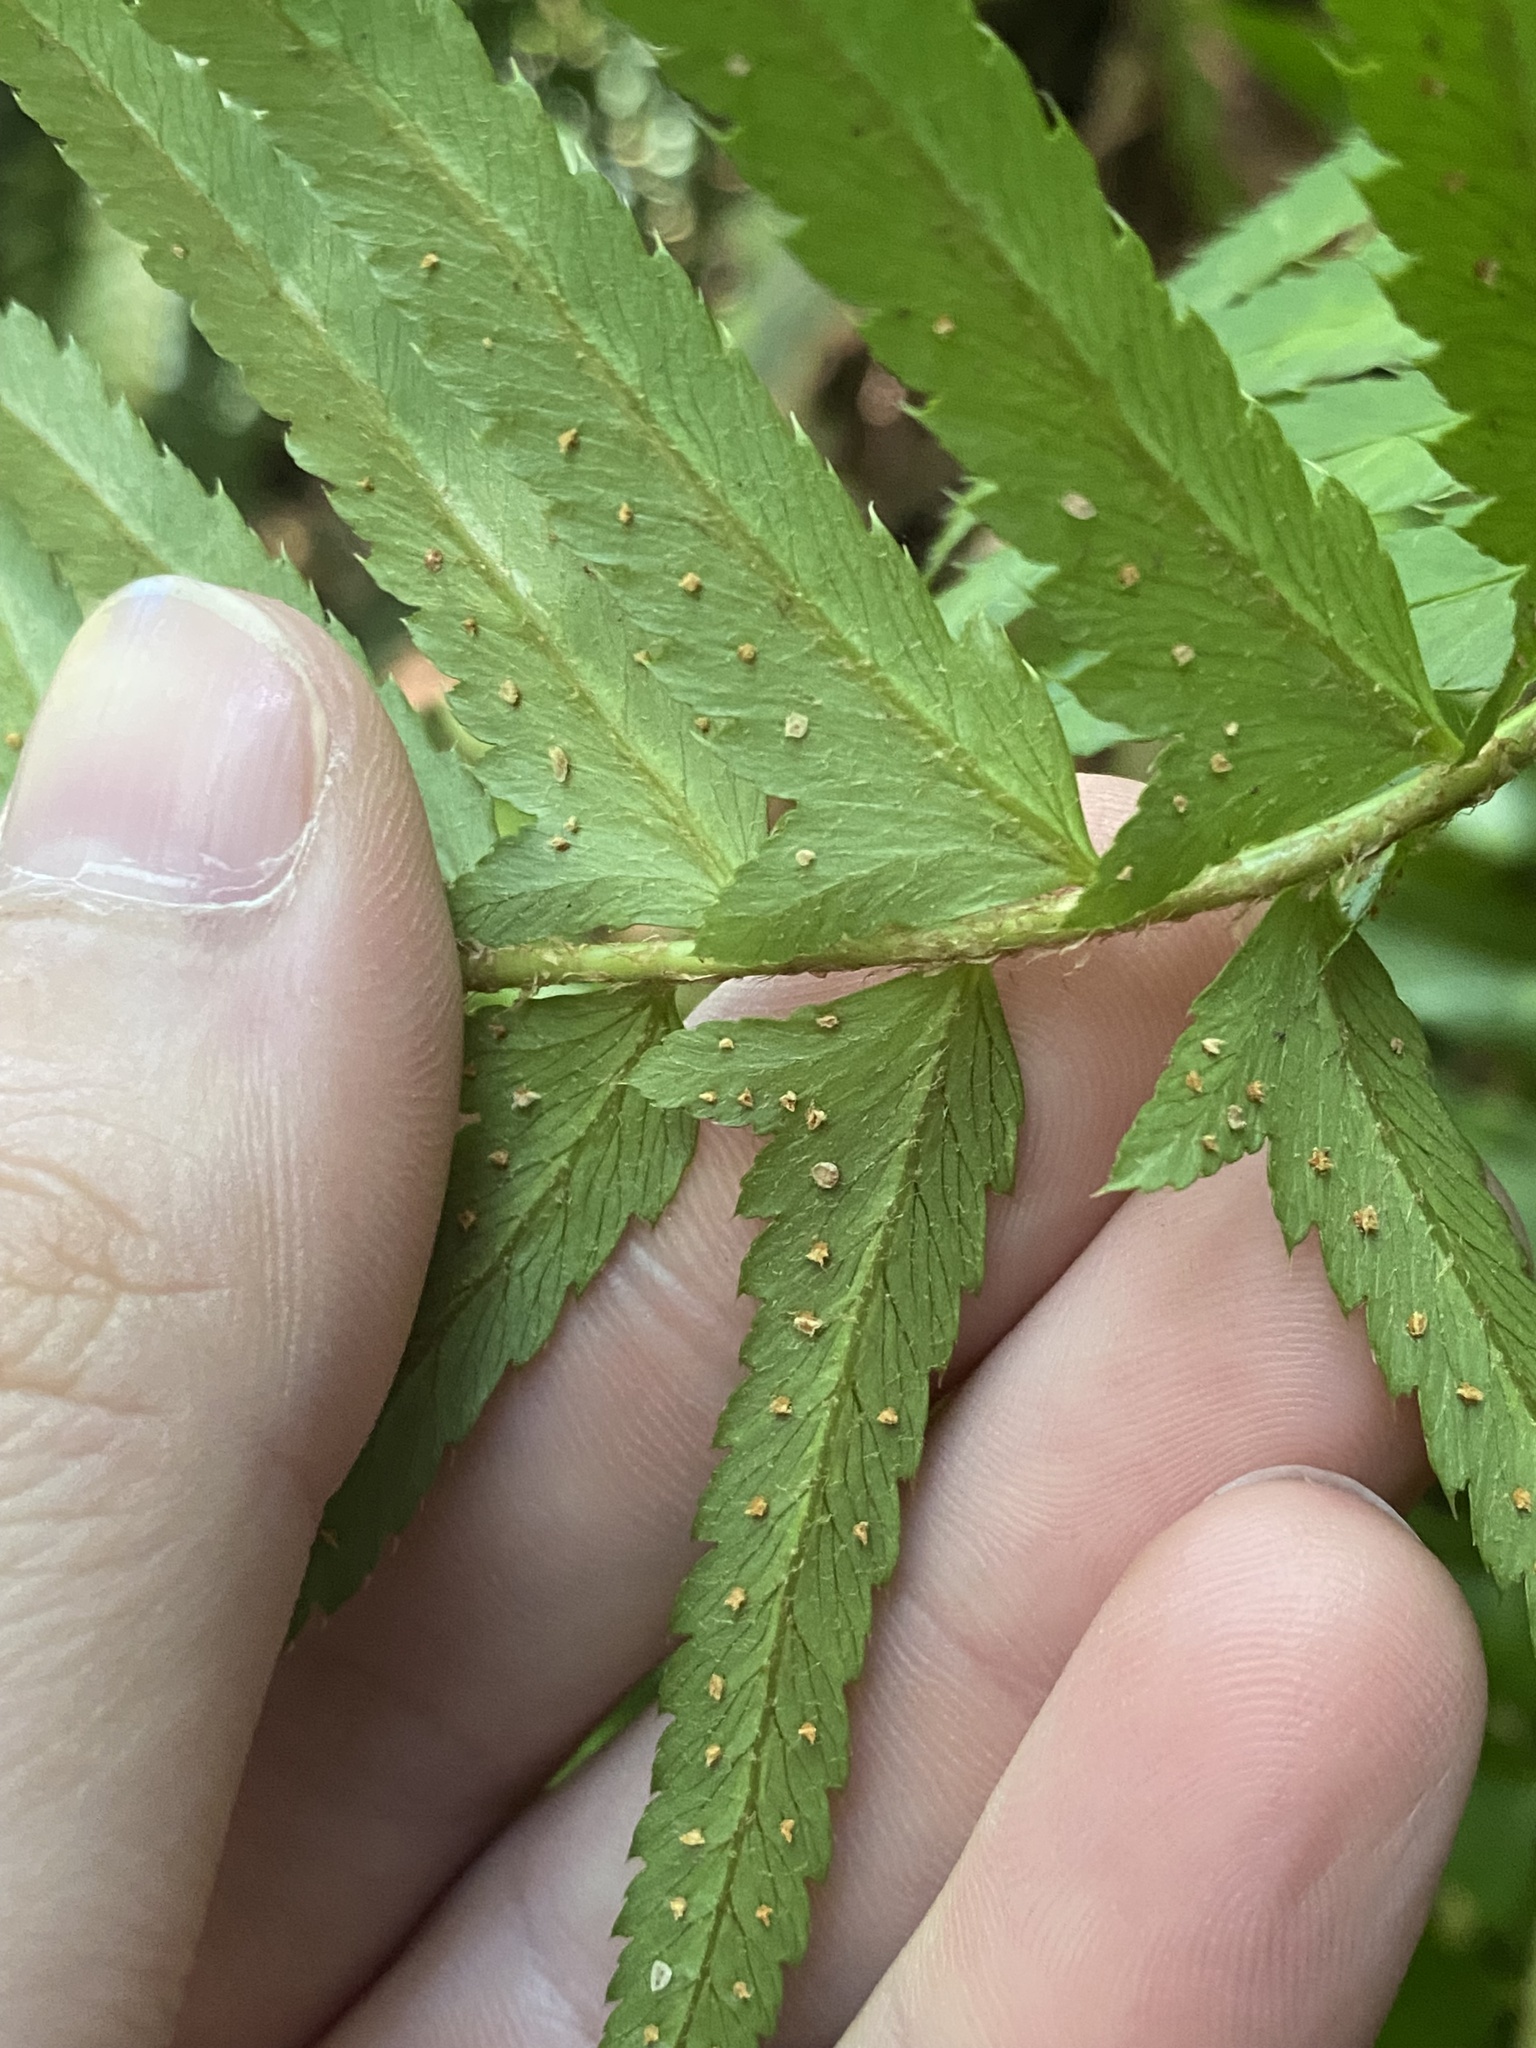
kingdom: Plantae
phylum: Tracheophyta
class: Polypodiopsida
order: Polypodiales
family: Dryopteridaceae
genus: Polystichum
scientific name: Polystichum munitum
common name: Western sword-fern
